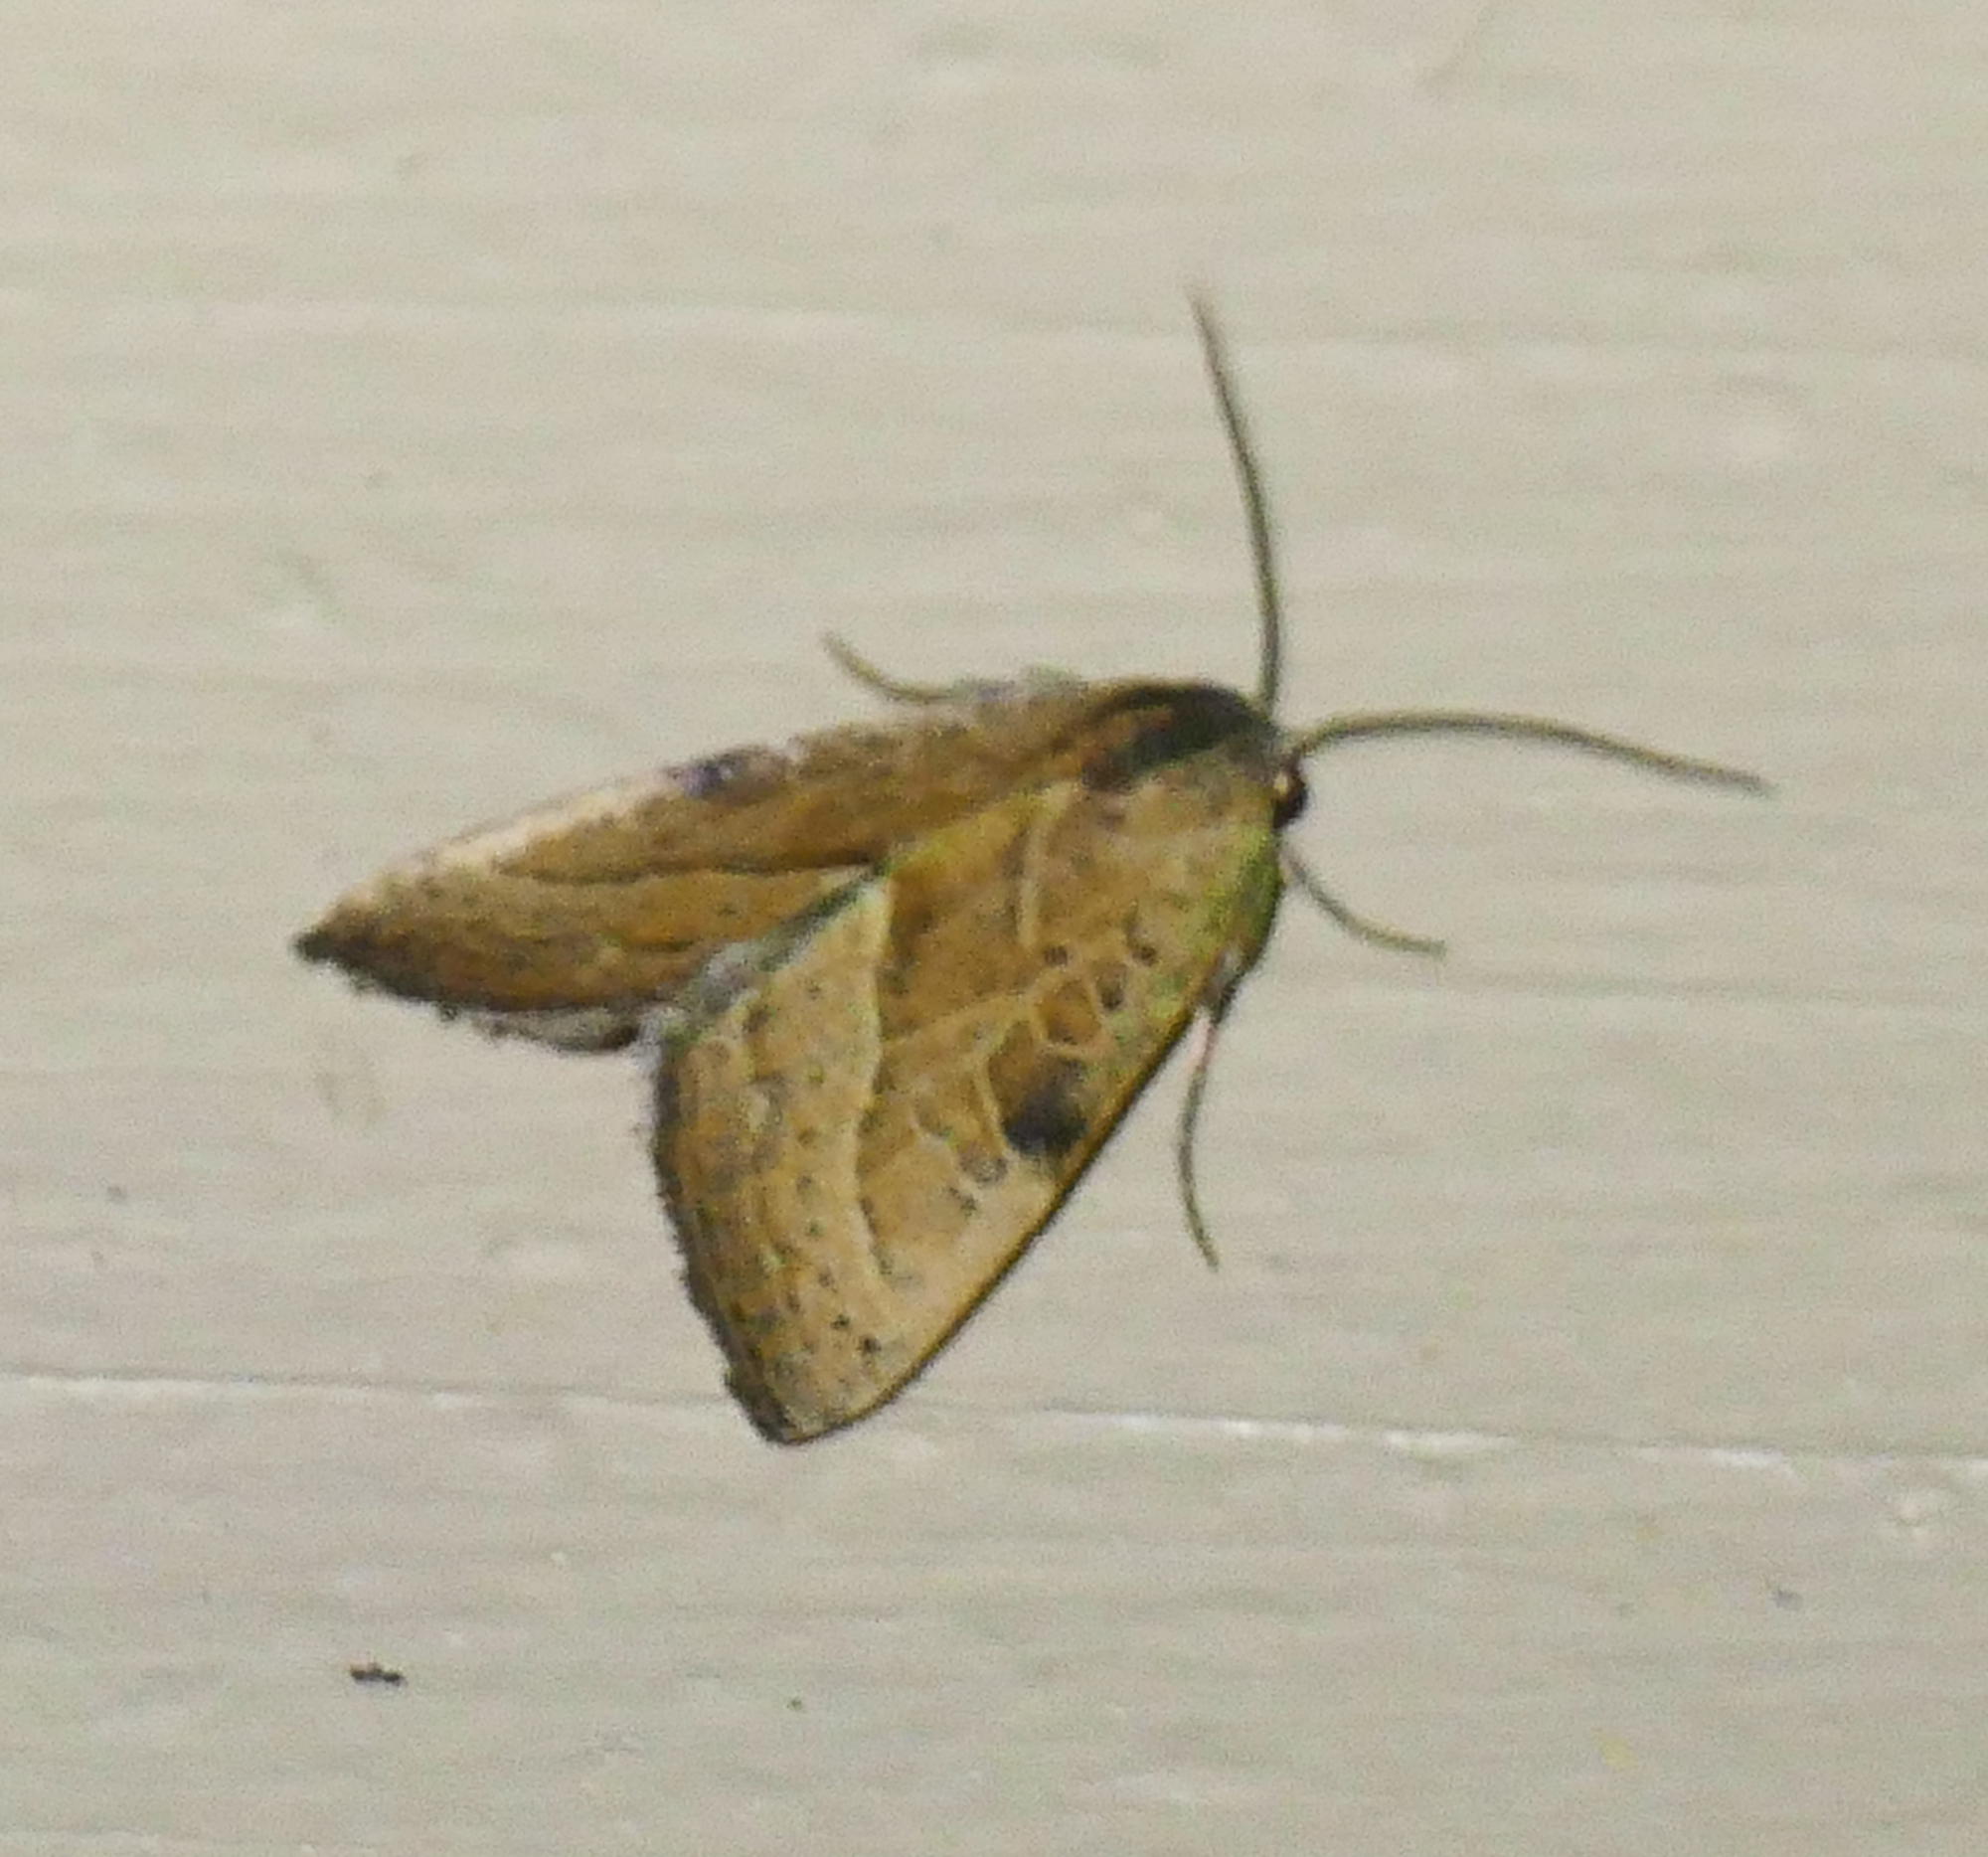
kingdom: Animalia
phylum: Arthropoda
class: Insecta
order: Lepidoptera
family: Noctuidae
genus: Galgula
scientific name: Galgula partita
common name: Wedgeling
